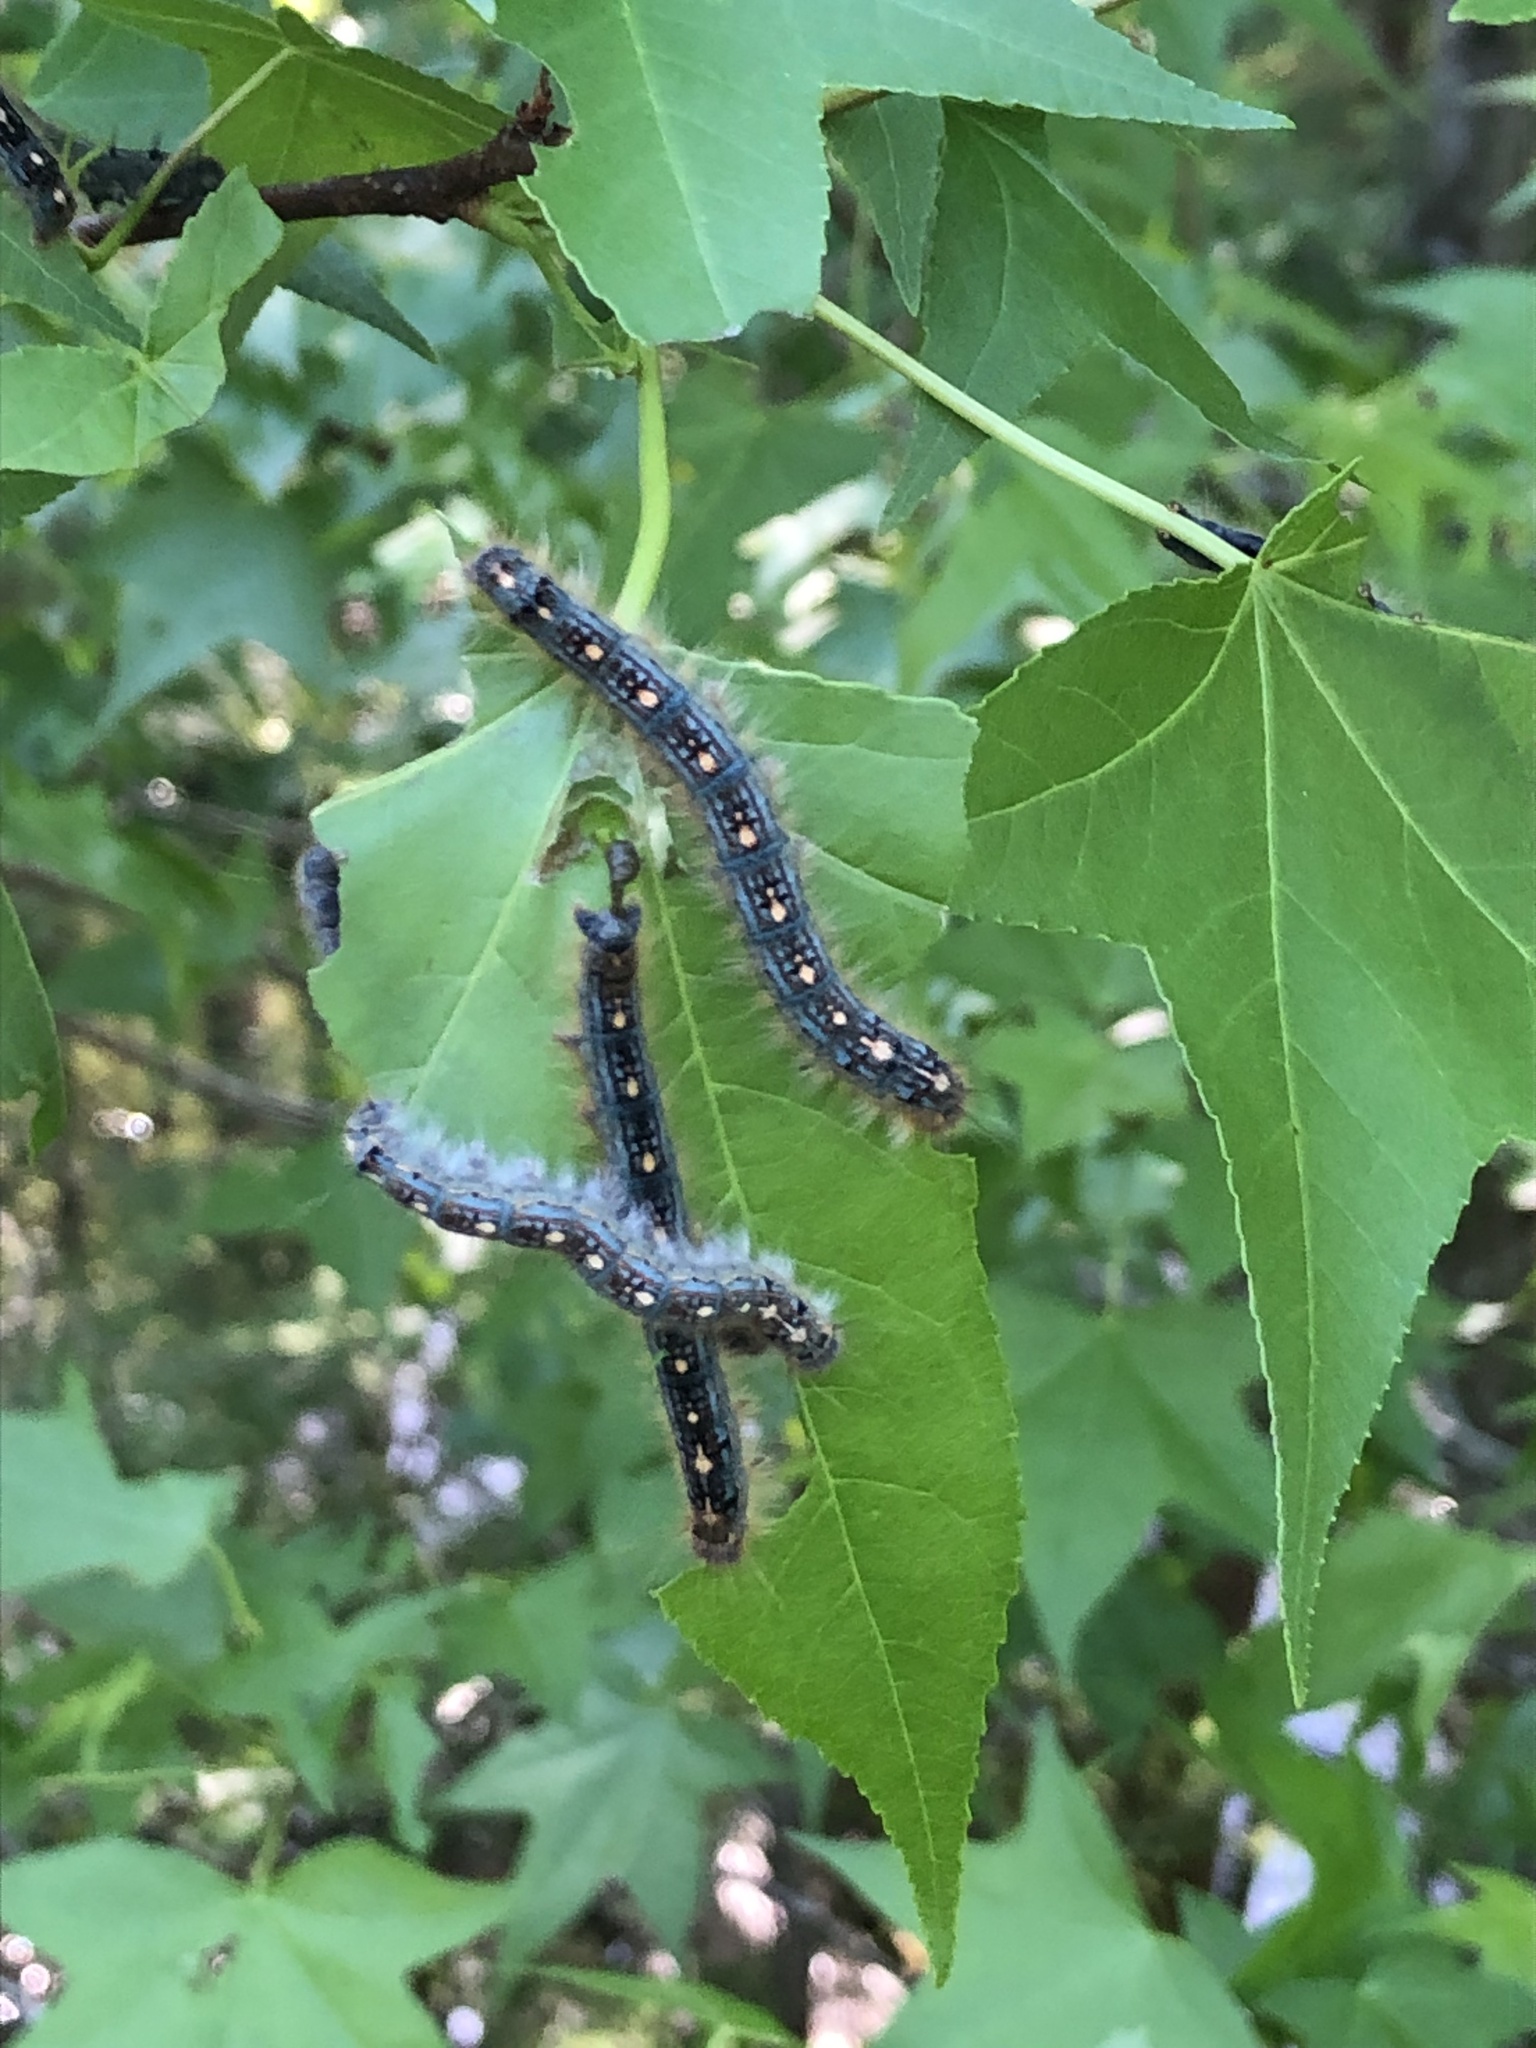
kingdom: Animalia
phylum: Arthropoda
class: Insecta
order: Lepidoptera
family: Lasiocampidae
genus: Malacosoma
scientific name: Malacosoma disstria
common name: Forest tent caterpillar
